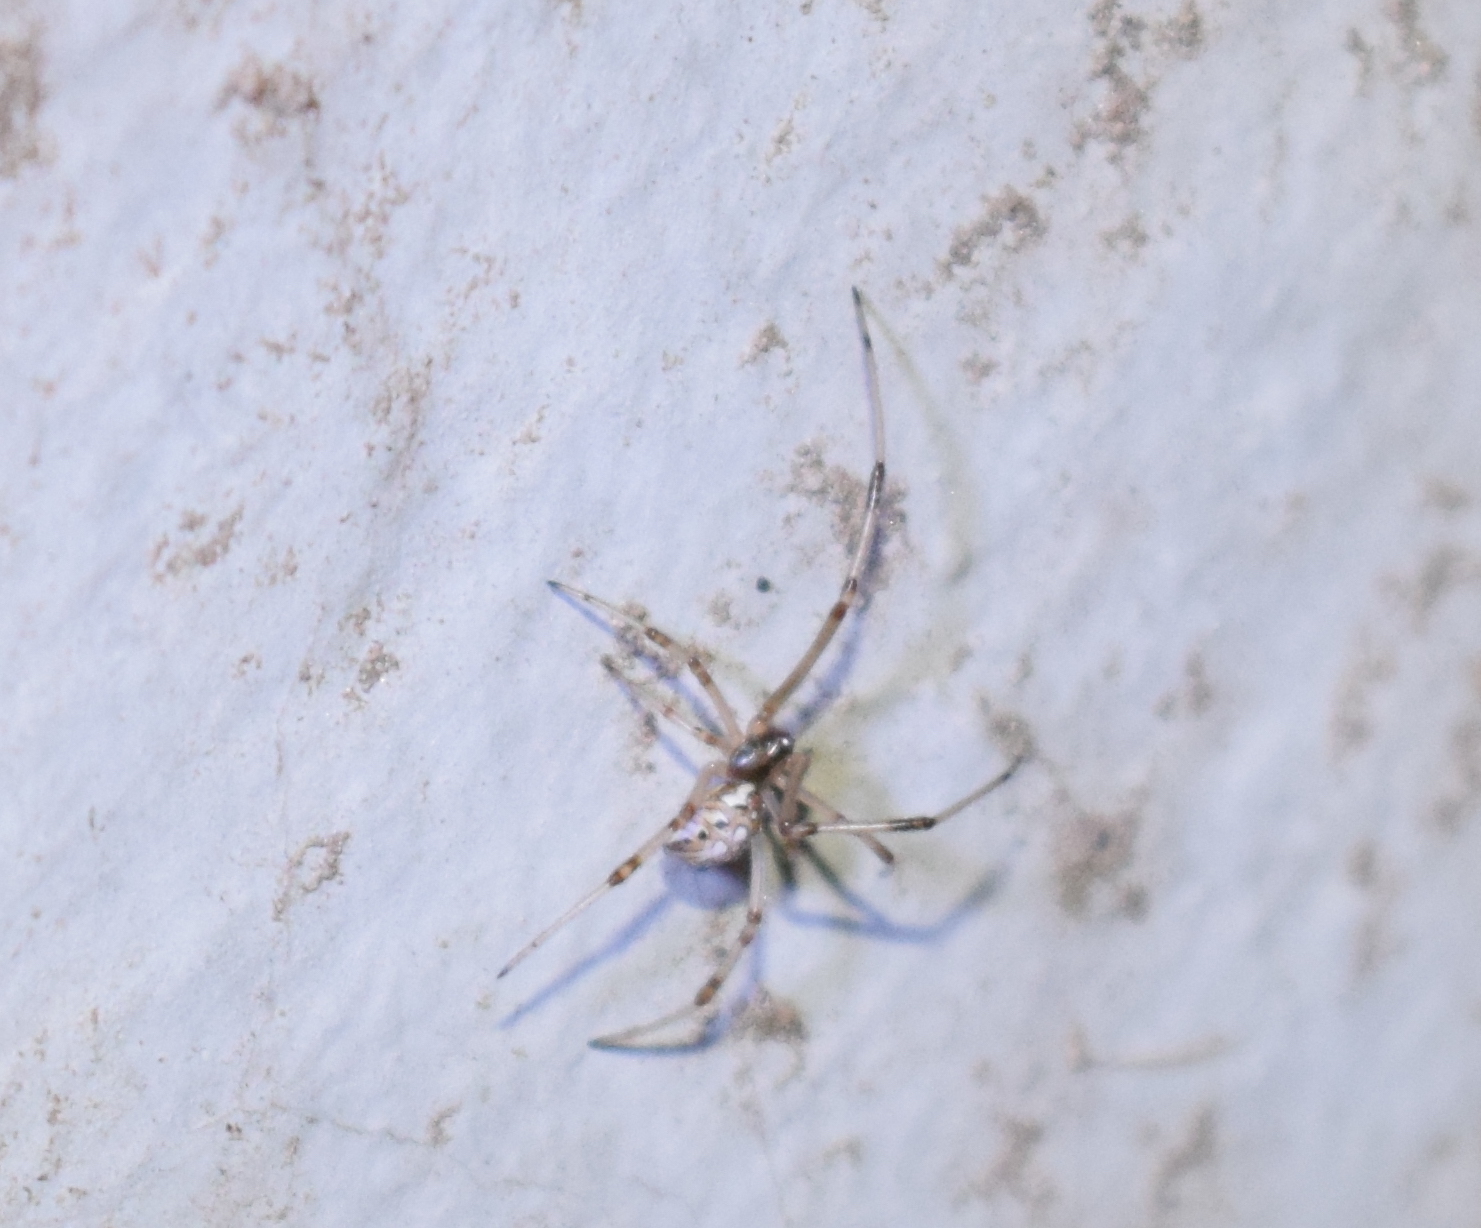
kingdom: Animalia
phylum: Arthropoda
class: Arachnida
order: Araneae
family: Theridiidae
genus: Latrodectus
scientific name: Latrodectus geometricus
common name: Brown widow spider
